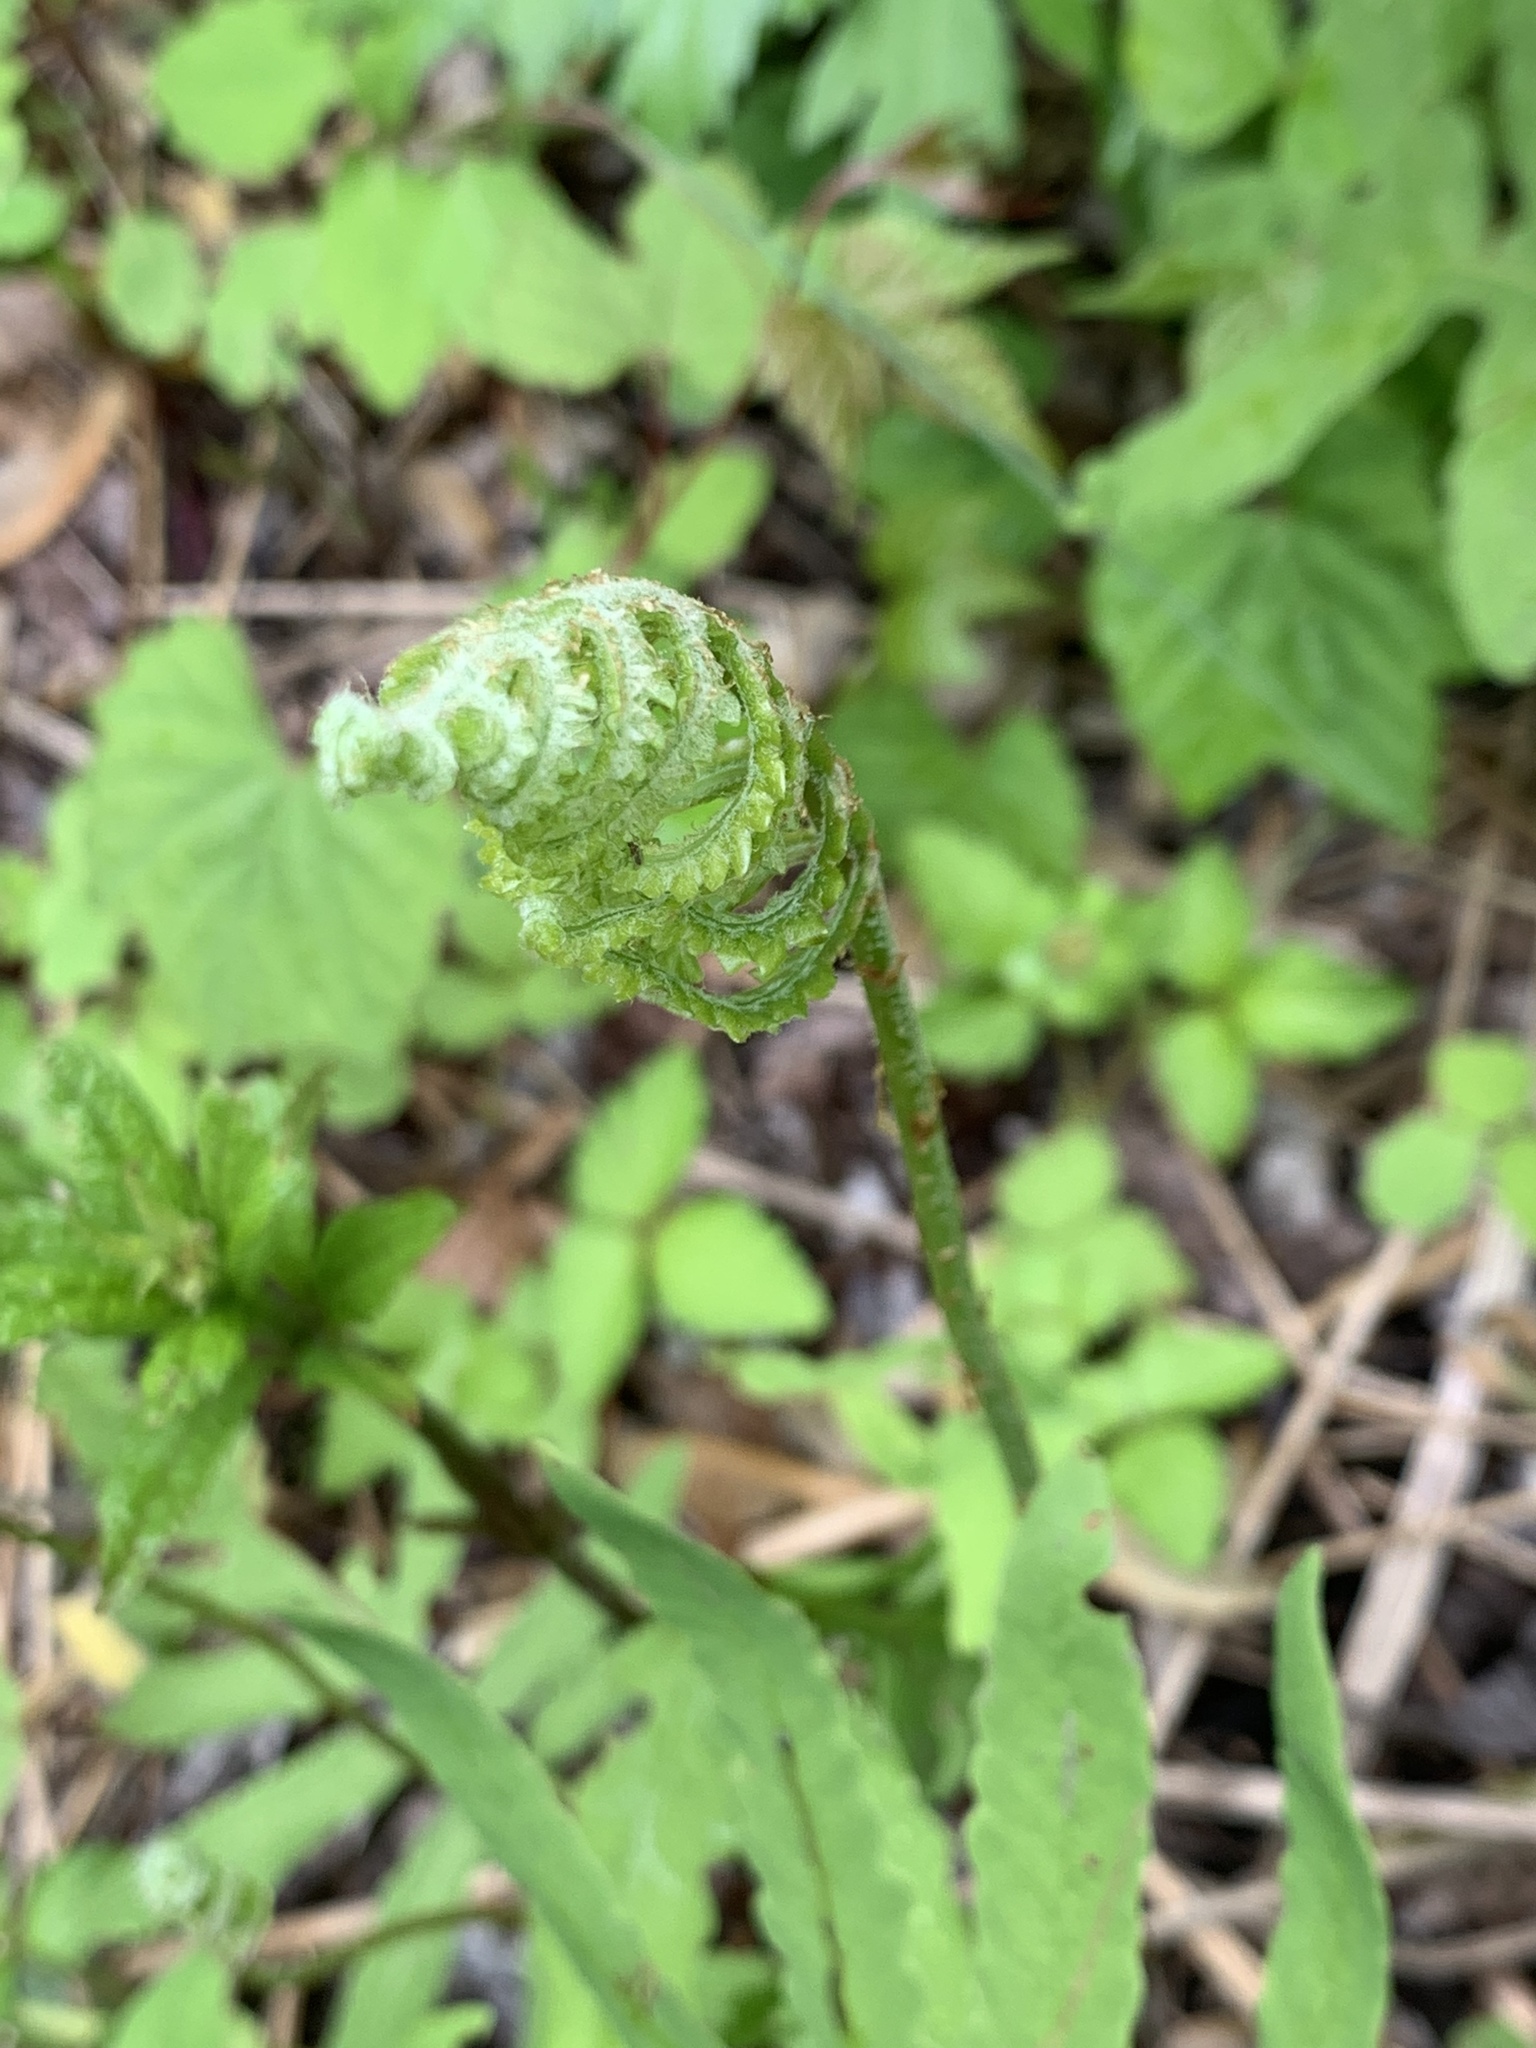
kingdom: Plantae
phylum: Tracheophyta
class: Polypodiopsida
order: Polypodiales
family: Onocleaceae
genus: Onoclea
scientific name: Onoclea sensibilis
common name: Sensitive fern
